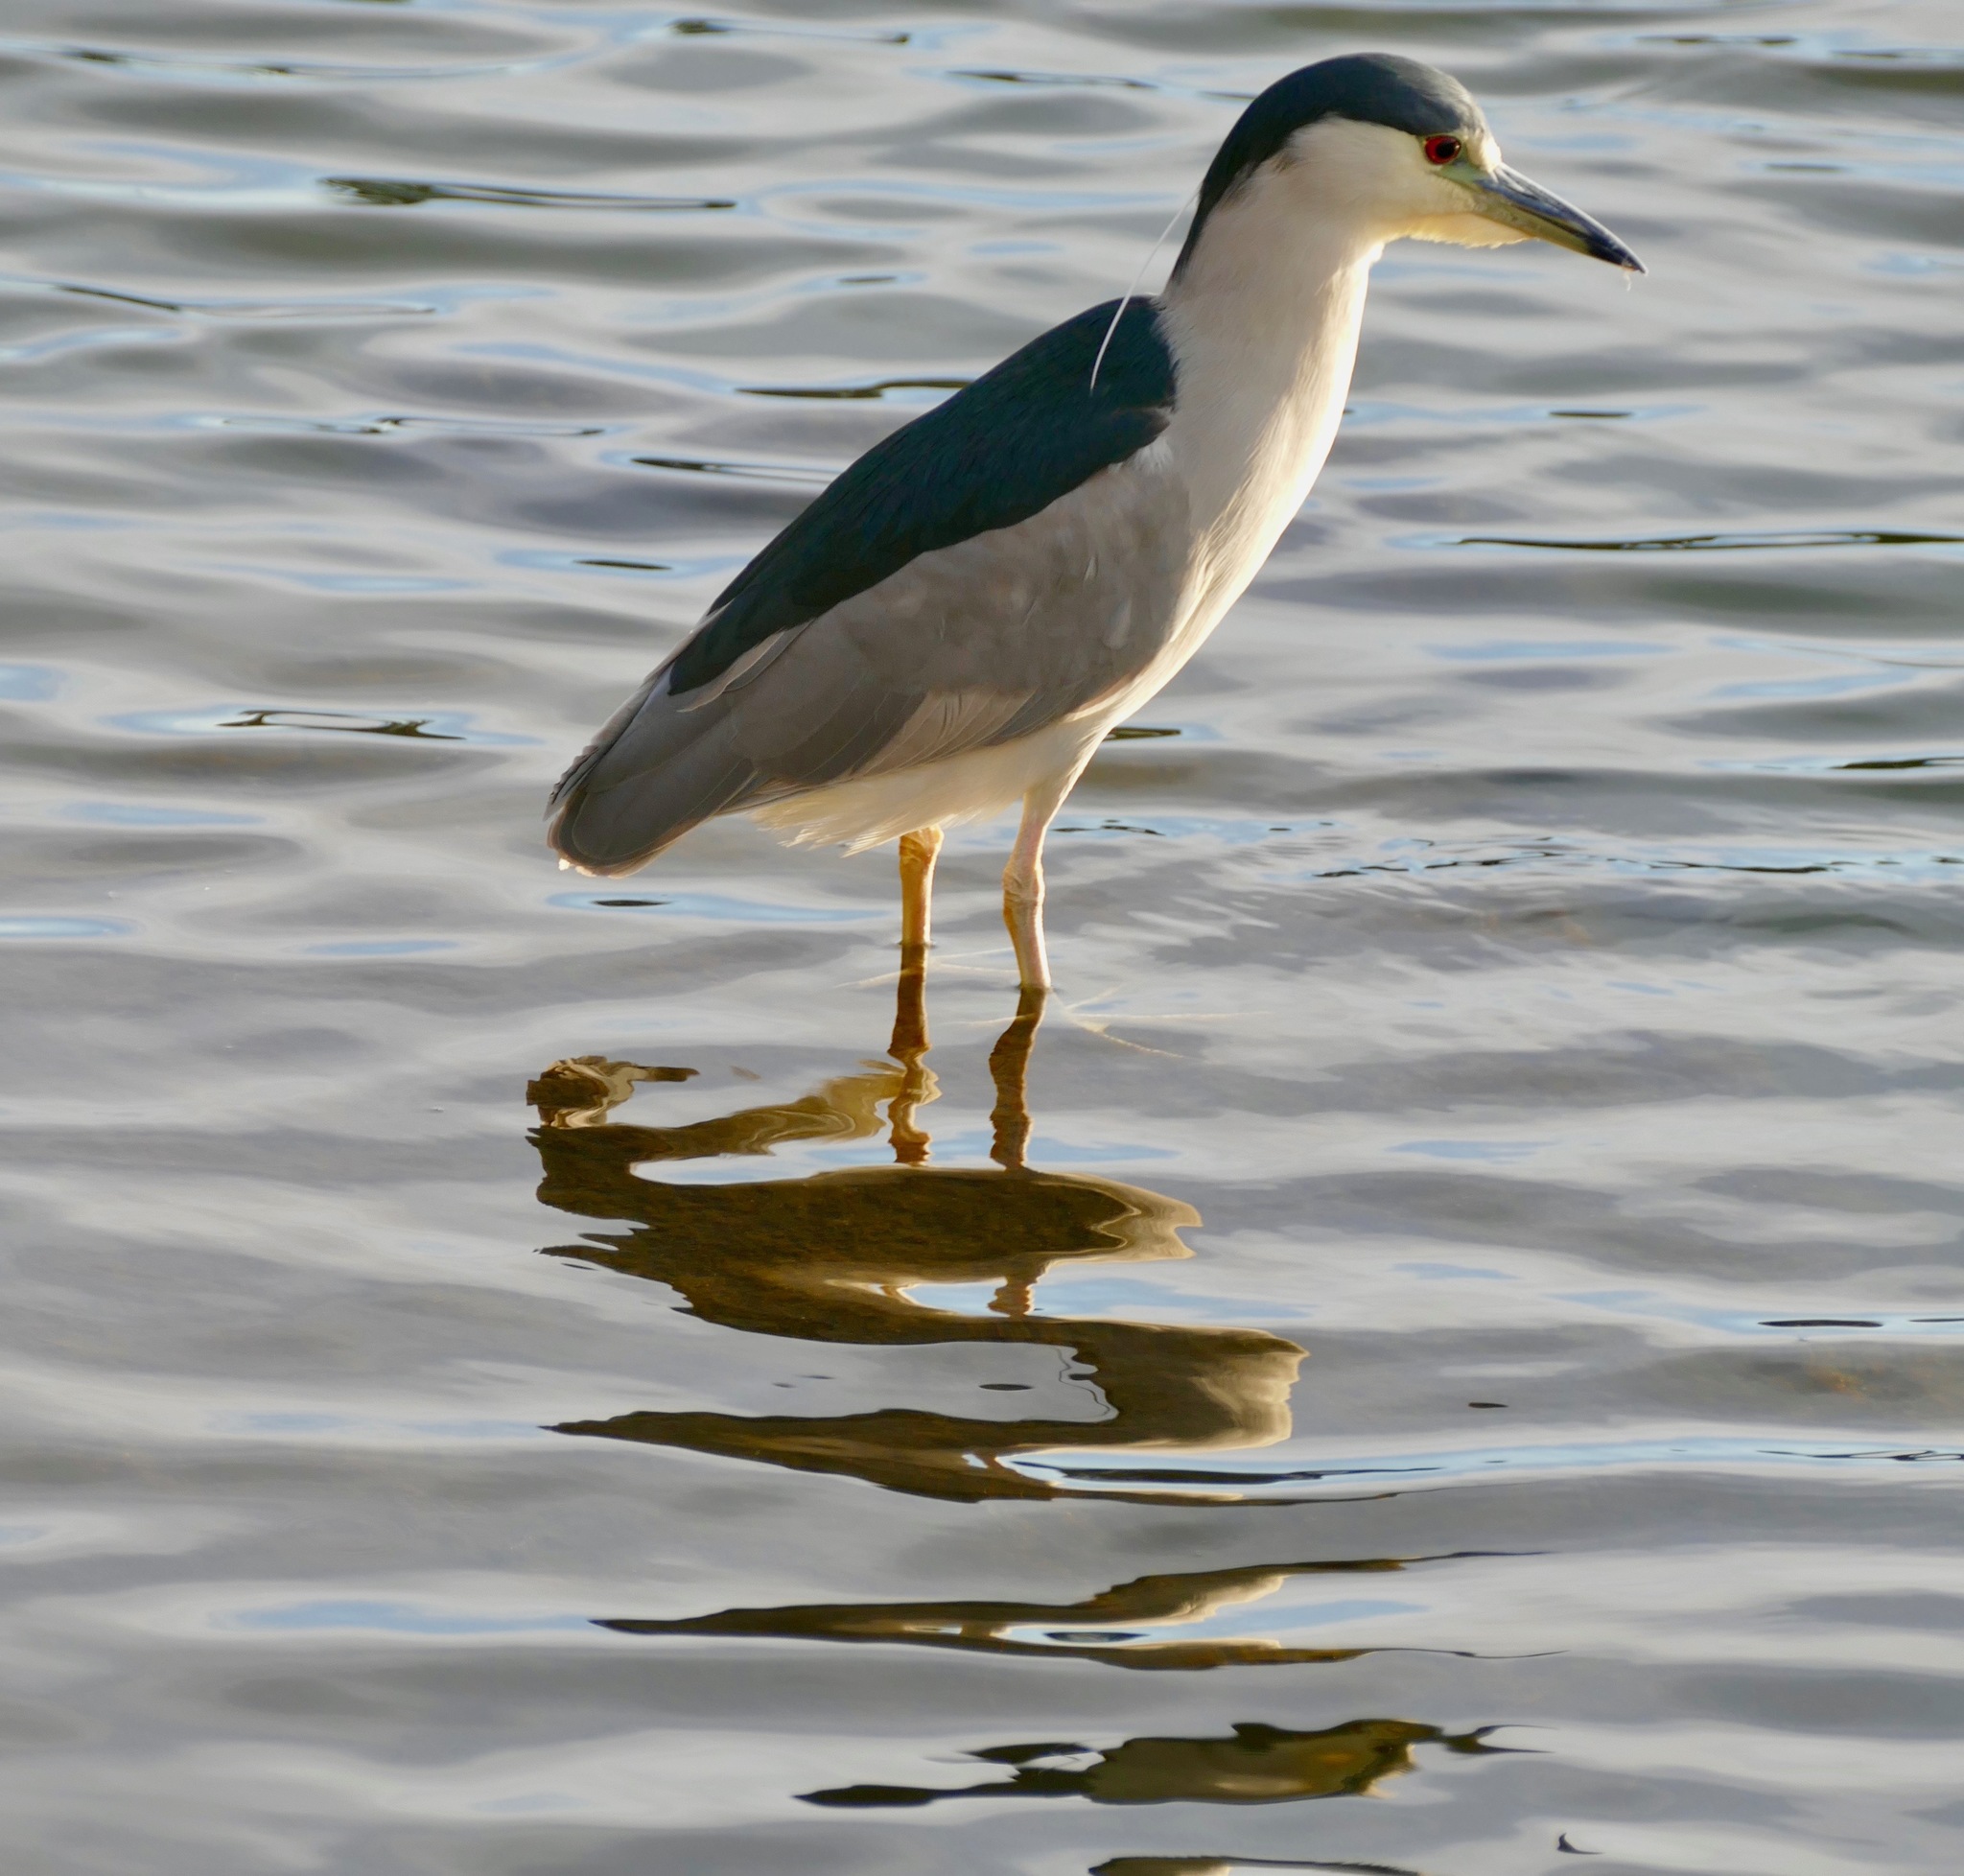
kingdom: Animalia
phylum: Chordata
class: Aves
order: Pelecaniformes
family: Ardeidae
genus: Nycticorax
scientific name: Nycticorax nycticorax
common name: Black-crowned night heron
